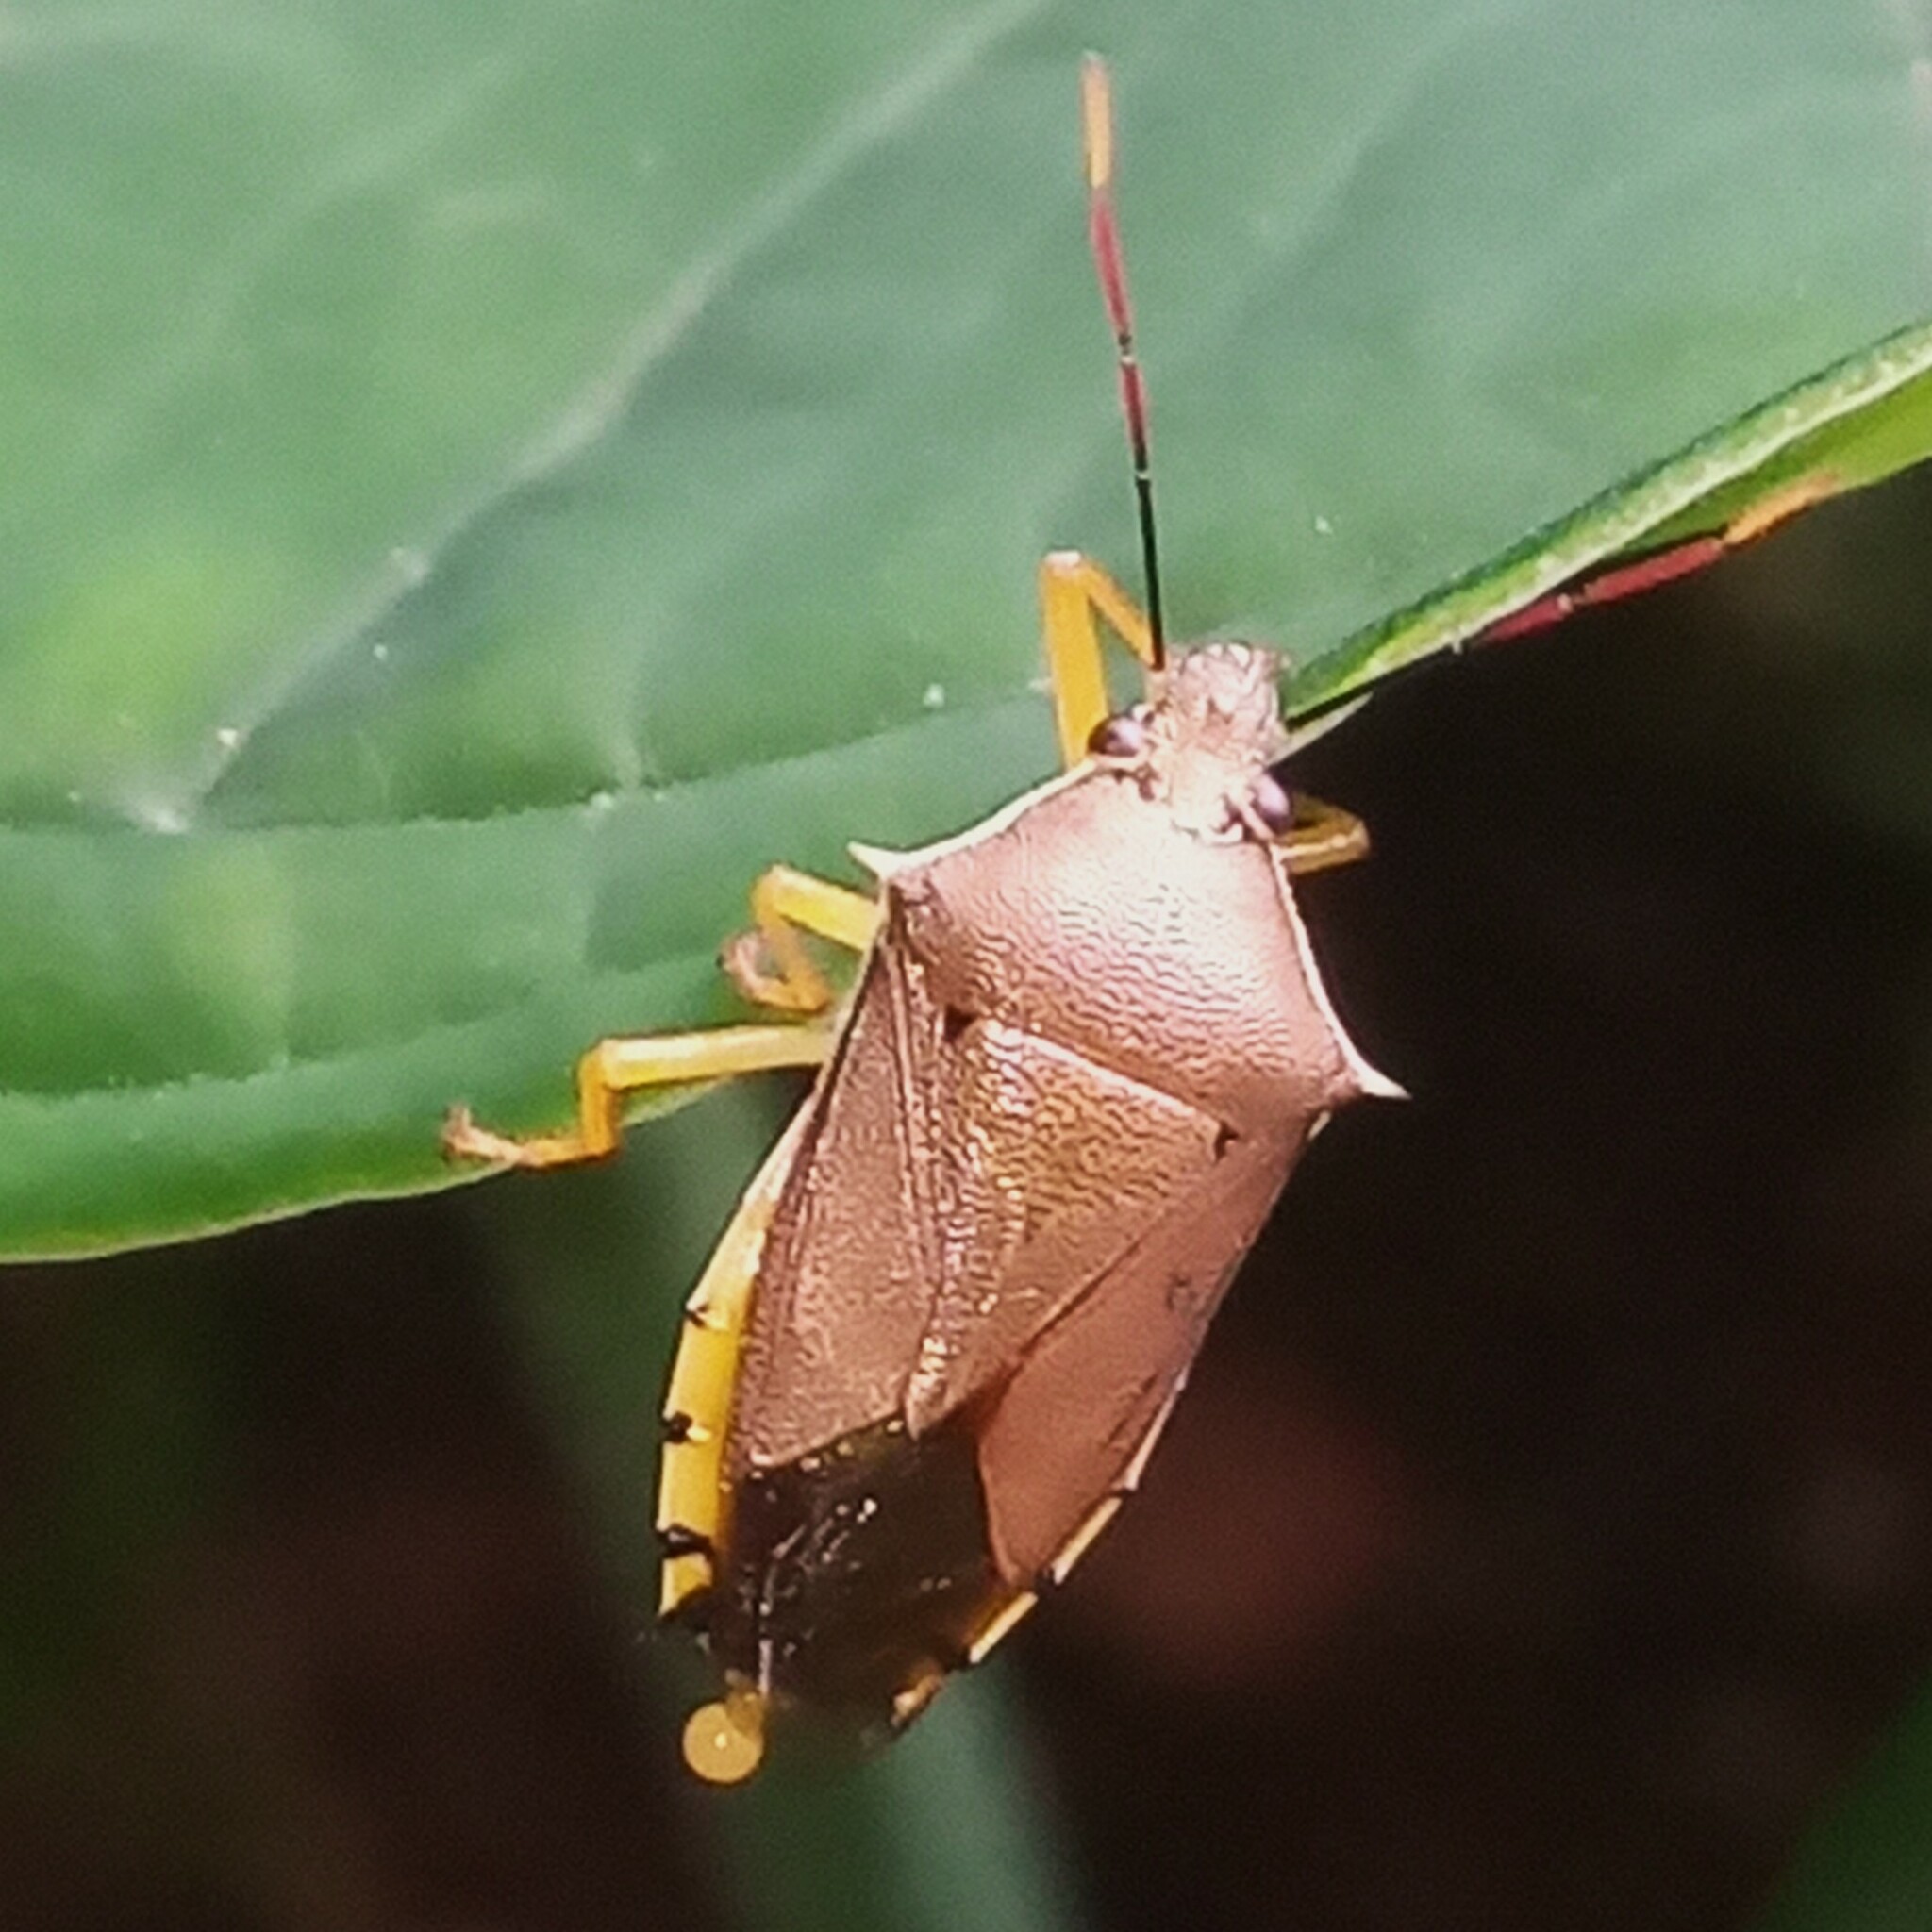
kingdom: Animalia
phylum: Arthropoda
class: Insecta
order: Hemiptera
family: Pentatomidae
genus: Supputius
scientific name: Supputius
